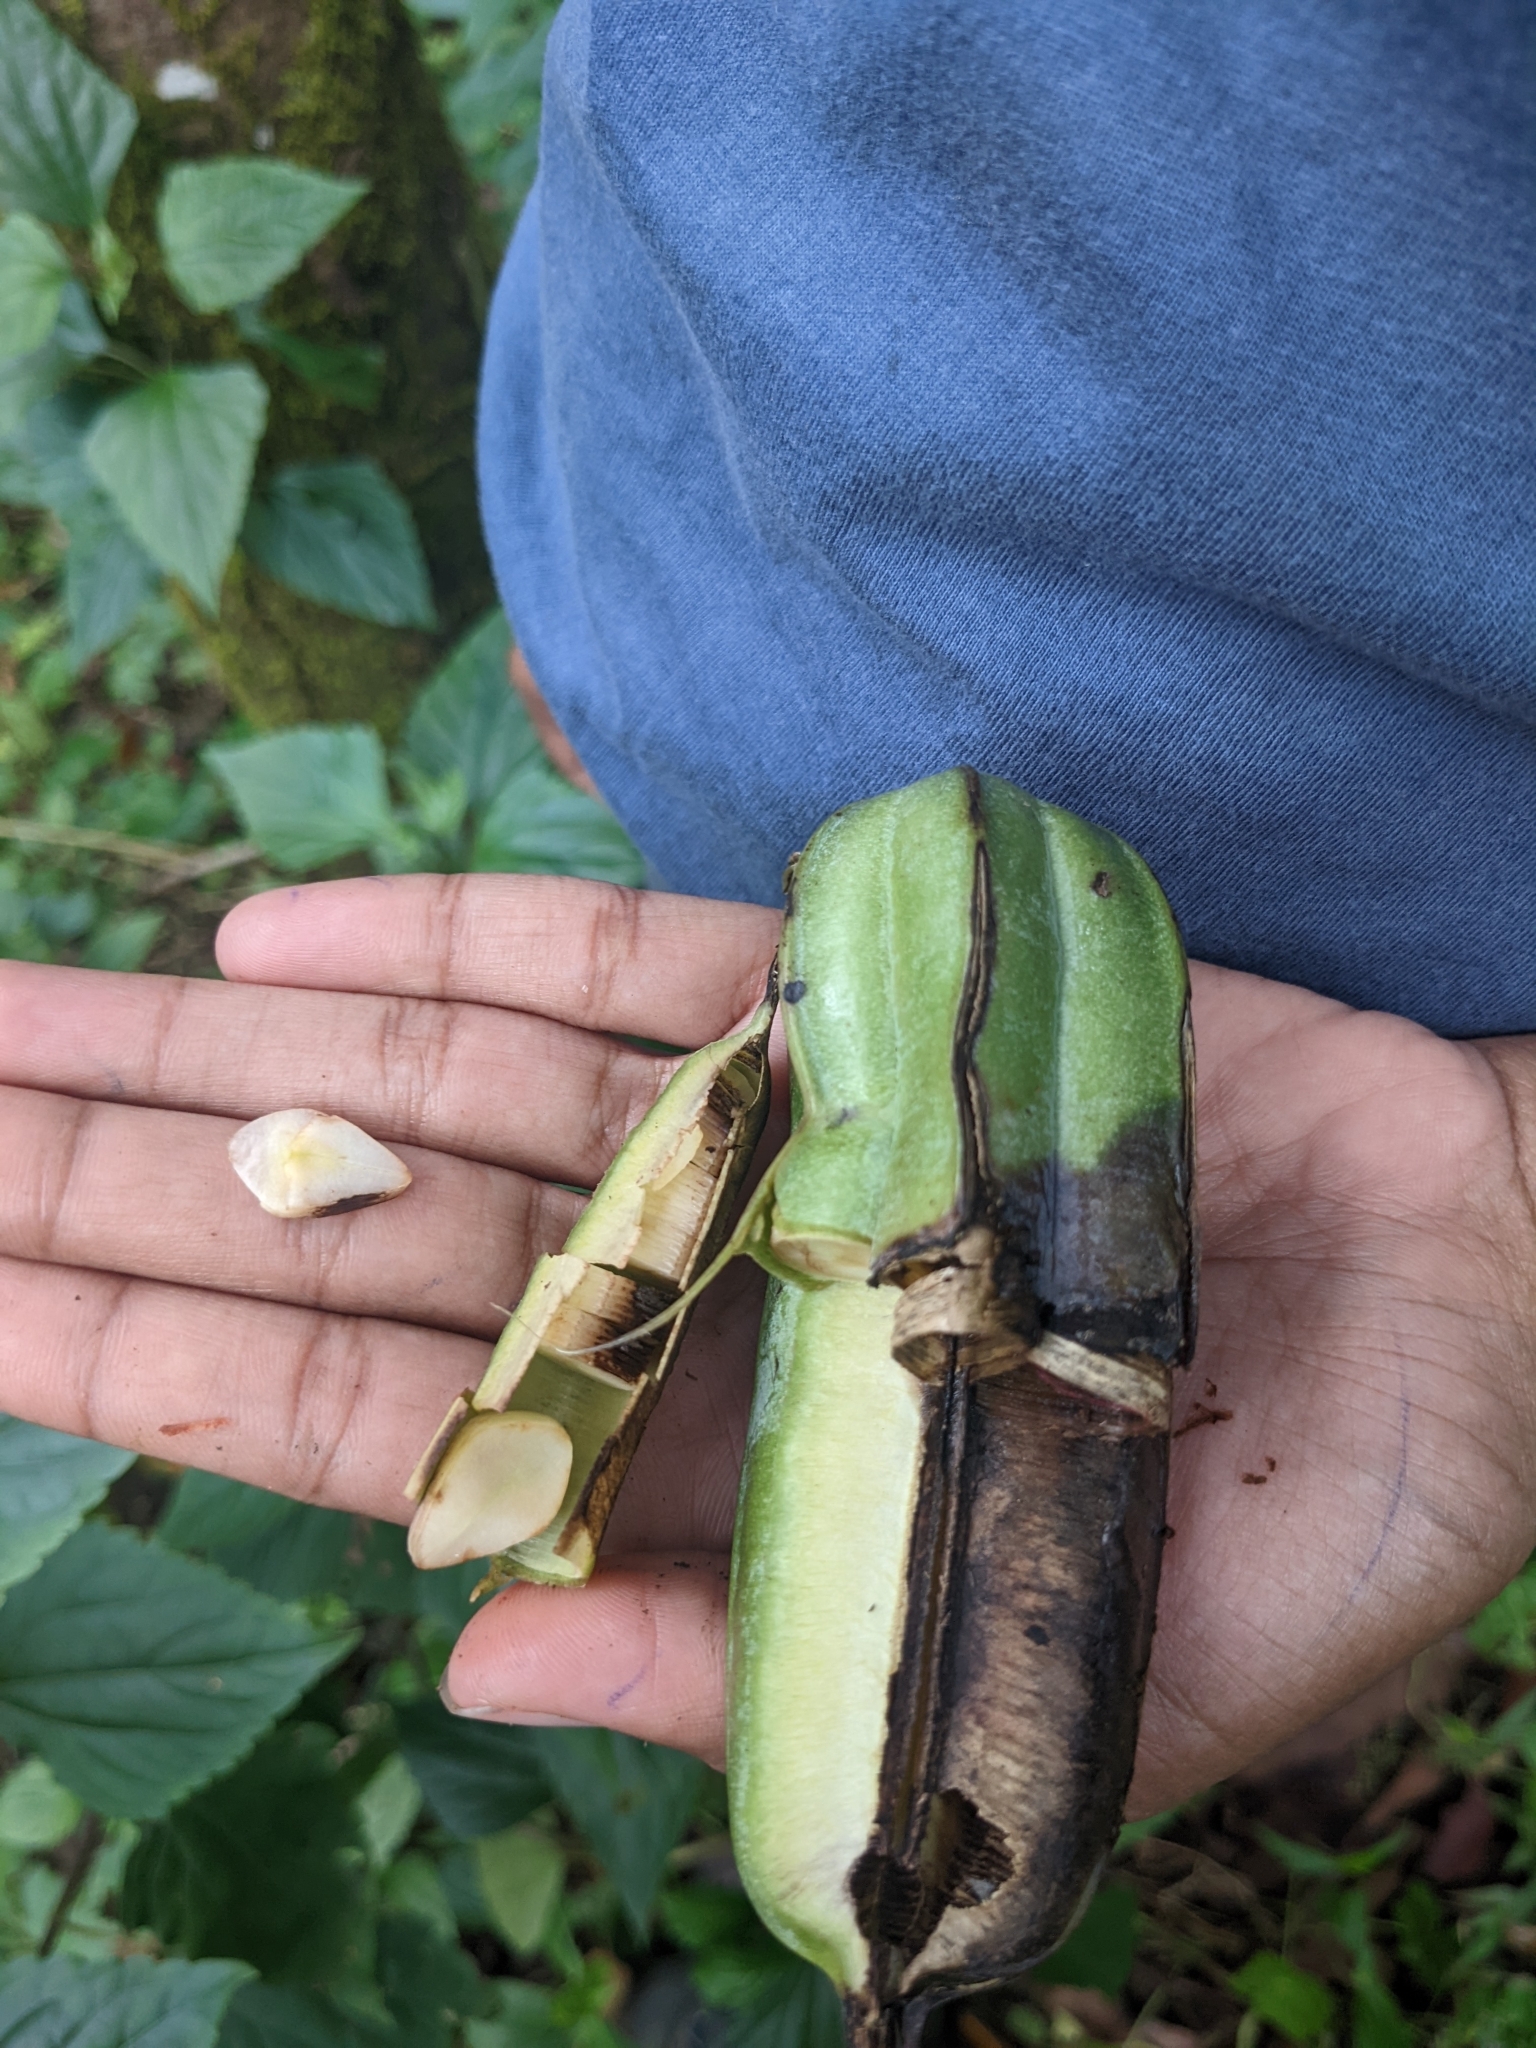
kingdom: Plantae
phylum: Tracheophyta
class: Magnoliopsida
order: Piperales
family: Aristolochiaceae
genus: Aristolochia
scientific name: Aristolochia ringens
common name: Gaping dutchman's pipe
